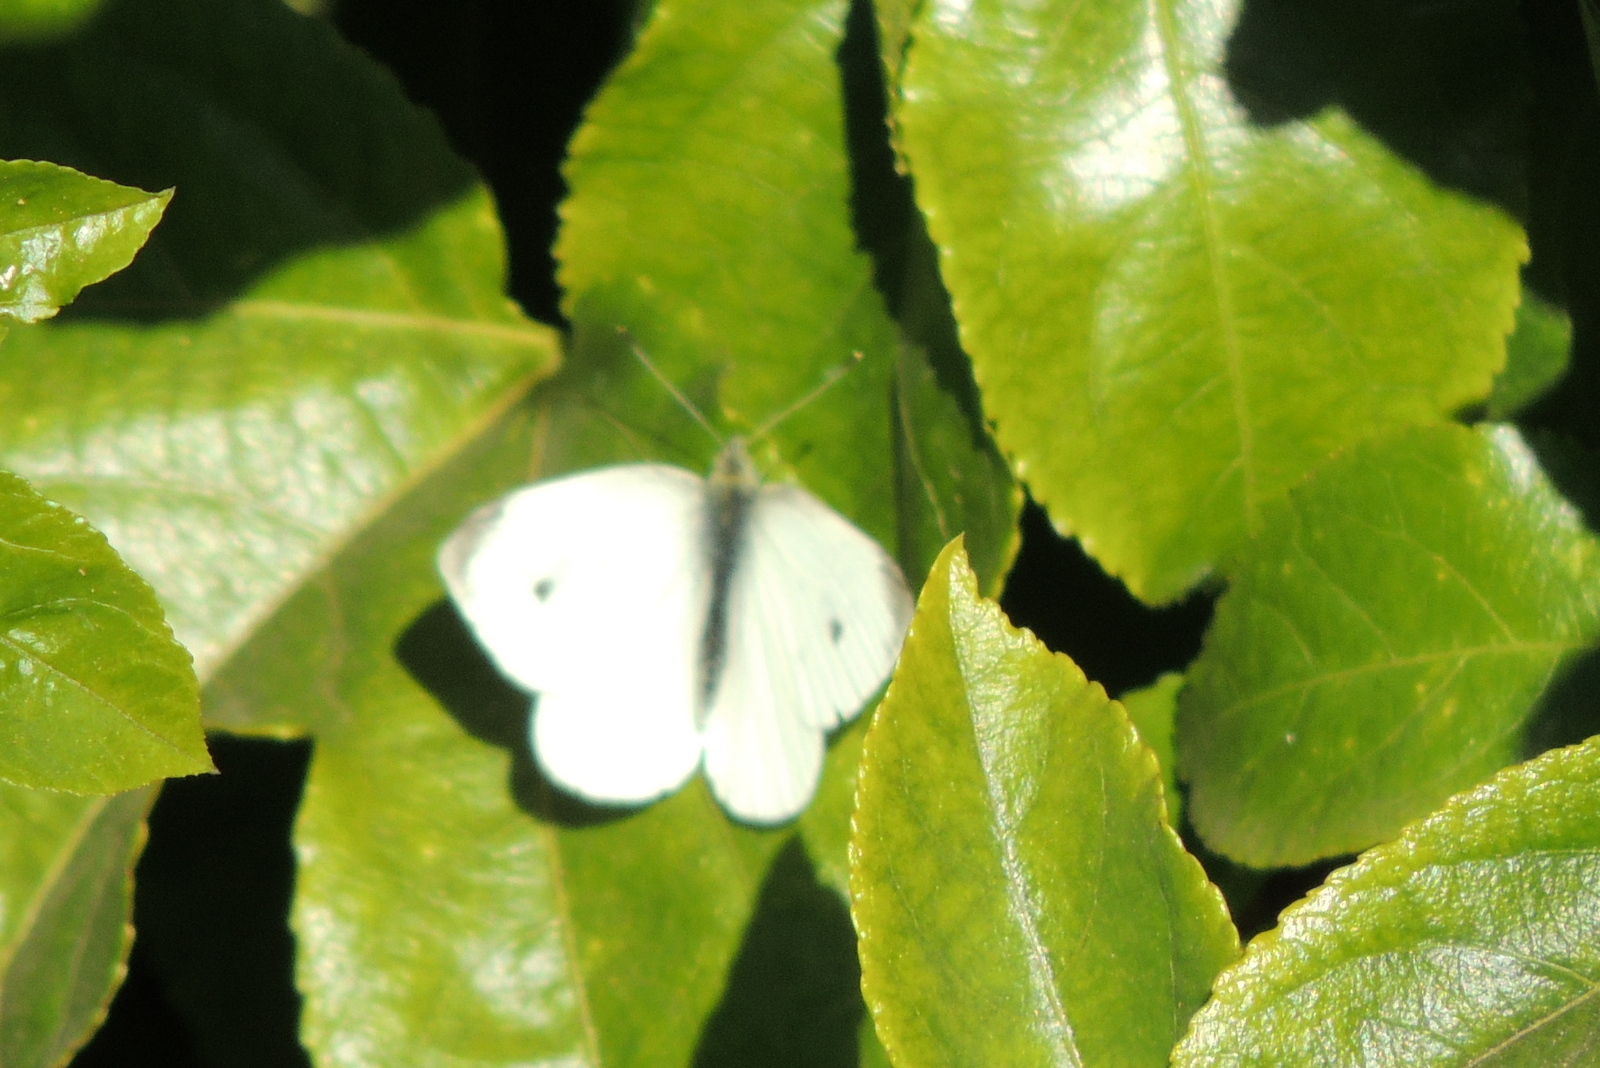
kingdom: Animalia
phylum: Arthropoda
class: Insecta
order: Lepidoptera
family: Pieridae
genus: Pieris
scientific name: Pieris rapae
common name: Small white
